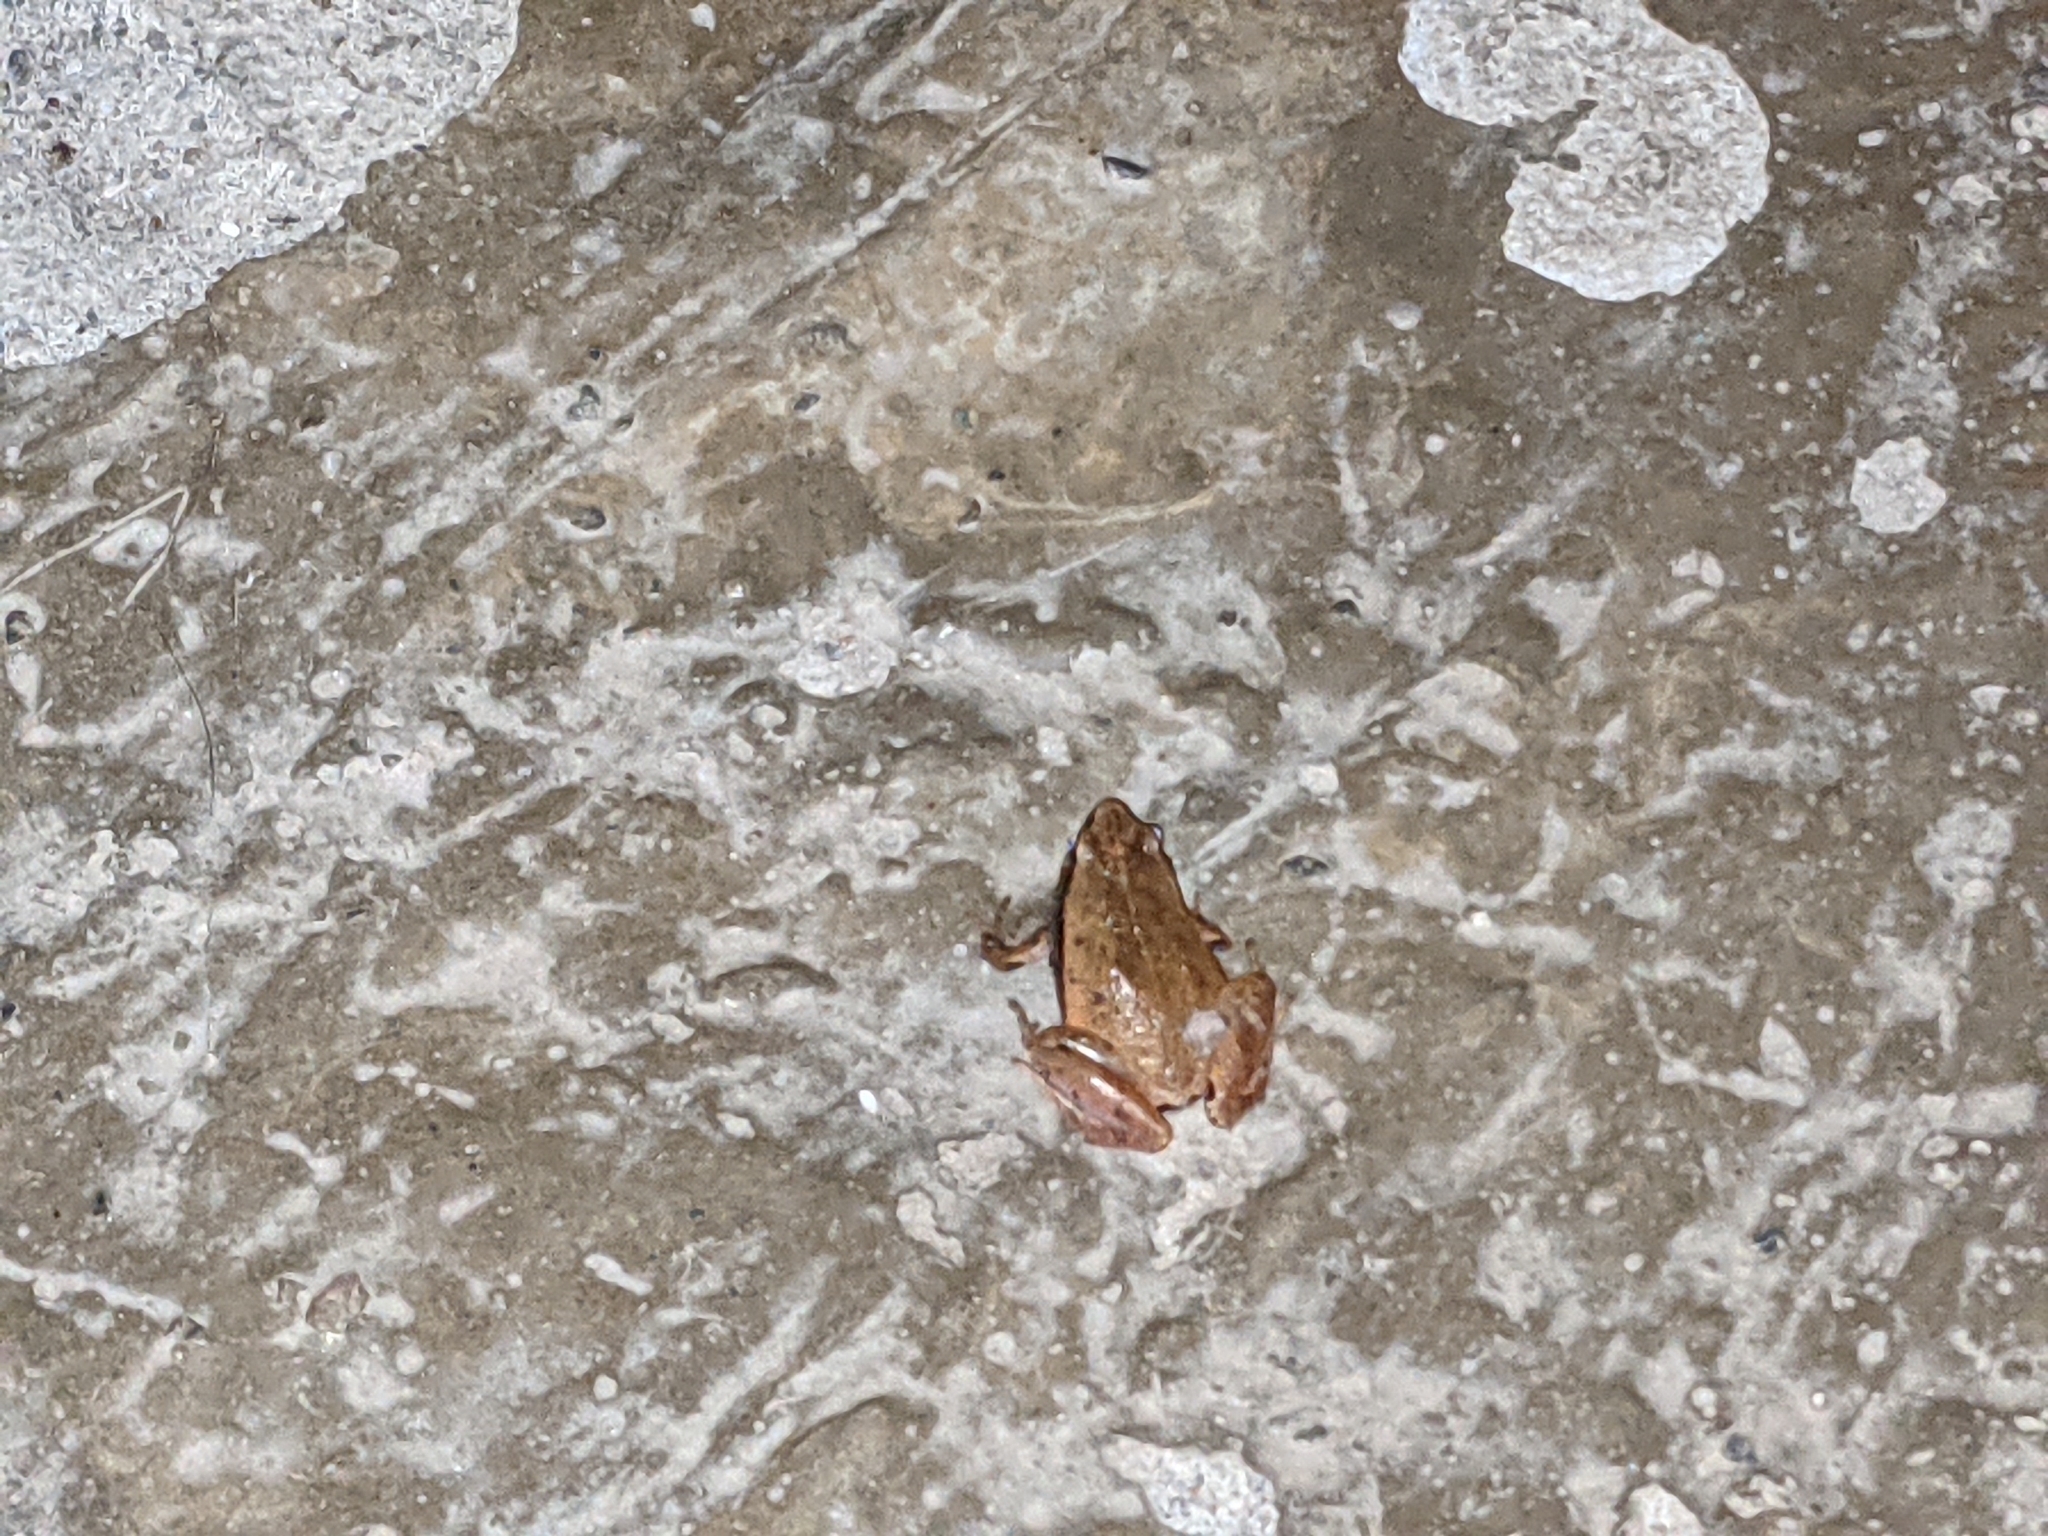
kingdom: Animalia
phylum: Chordata
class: Amphibia
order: Anura
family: Microhylidae
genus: Microhyla
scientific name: Microhyla heymonsi
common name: Taiwan rice frog,dark sided chorus frog
